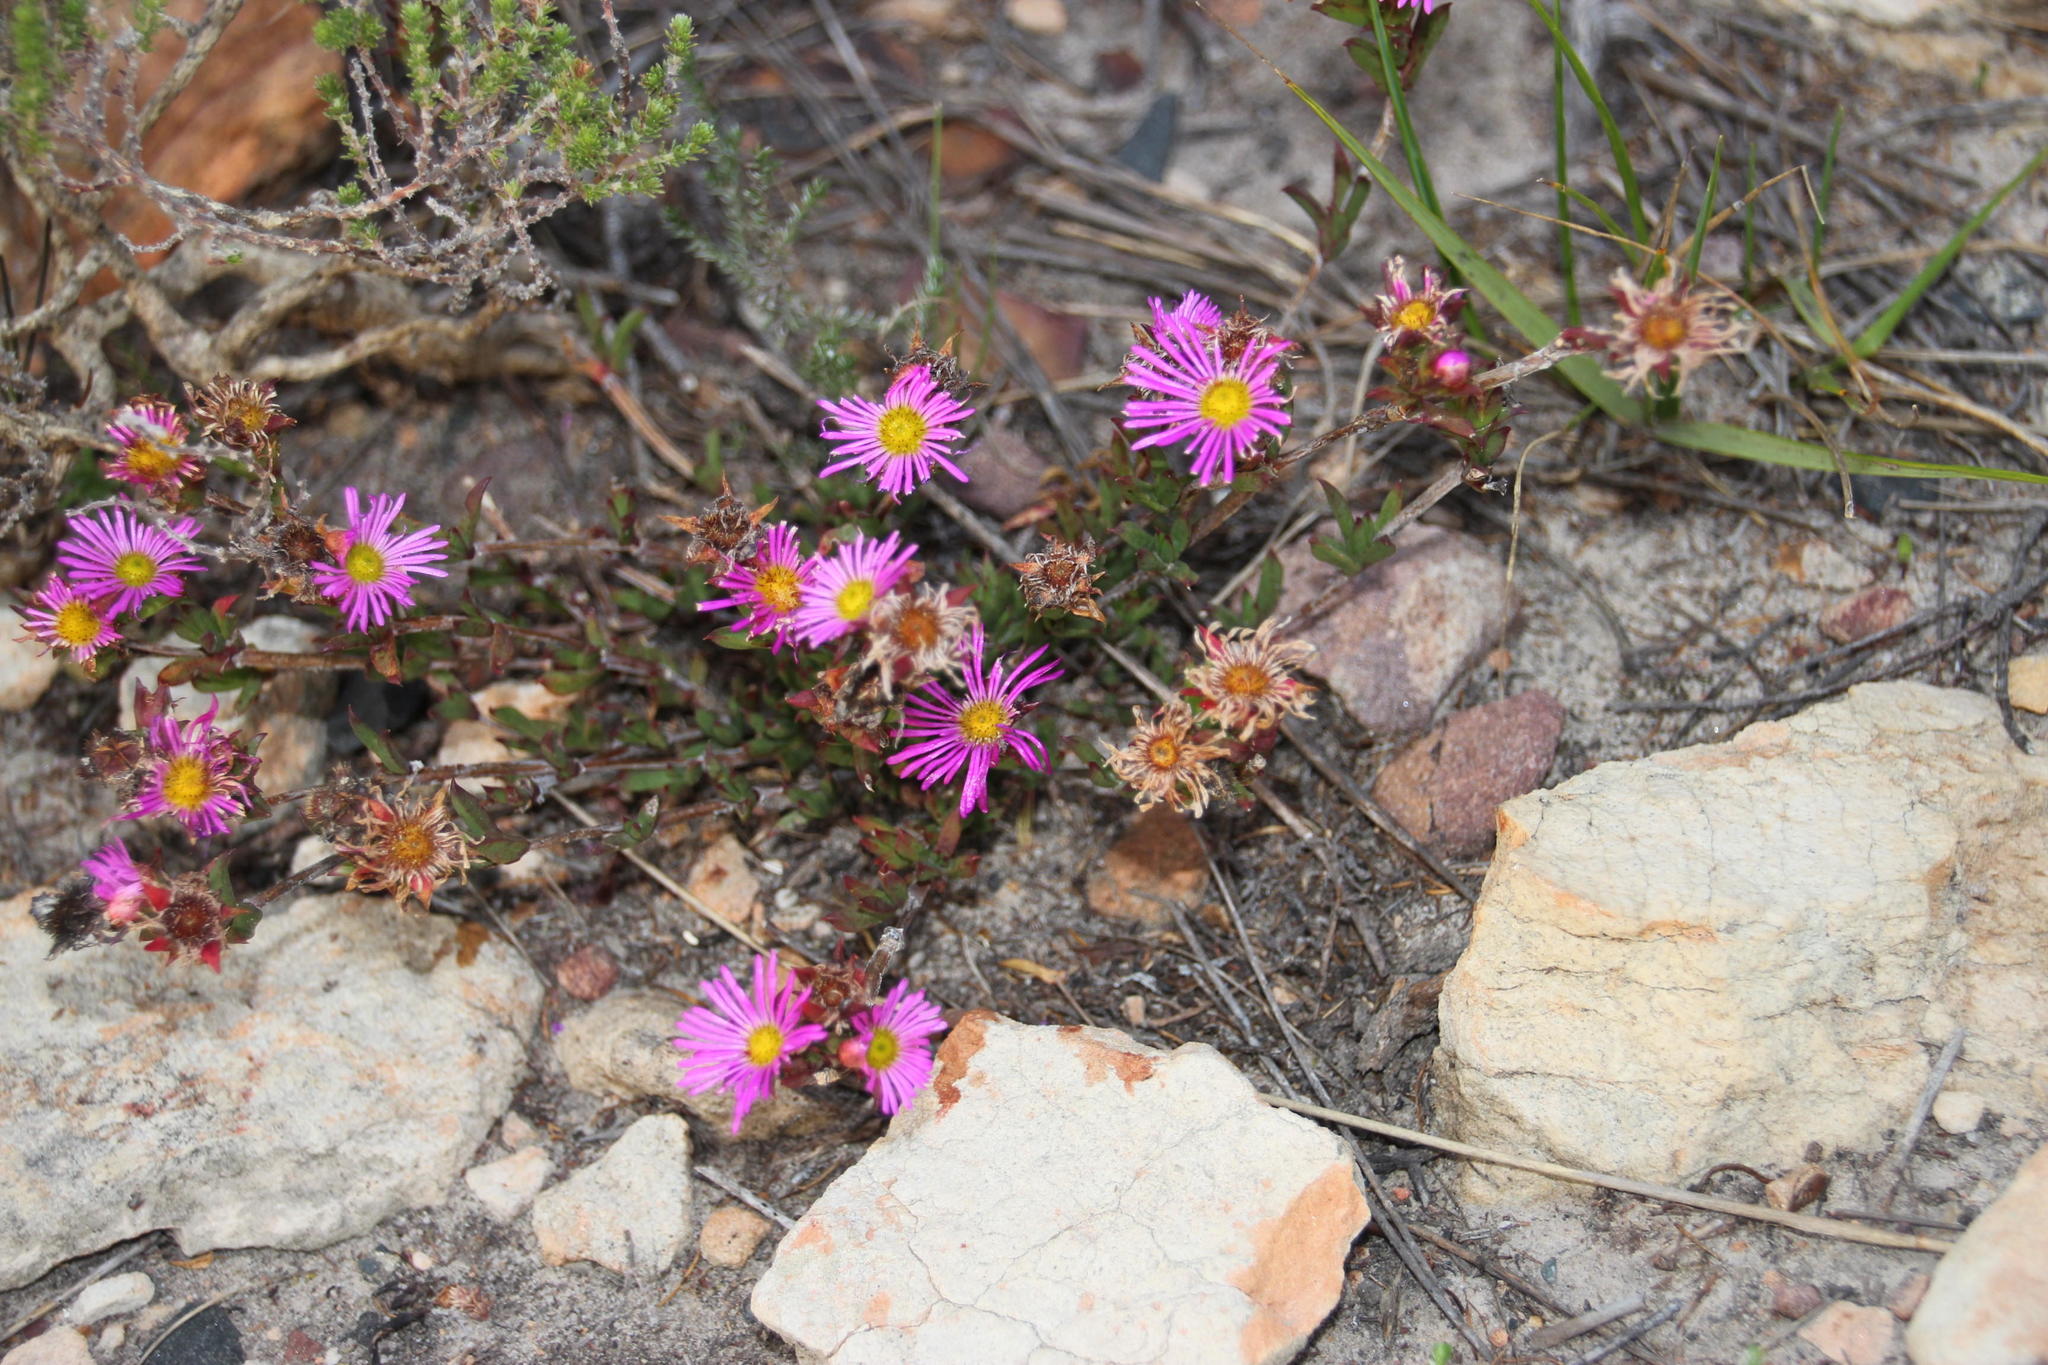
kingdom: Plantae
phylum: Tracheophyta
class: Magnoliopsida
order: Caryophyllales
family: Aizoaceae
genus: Erepsia
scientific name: Erepsia bracteata
